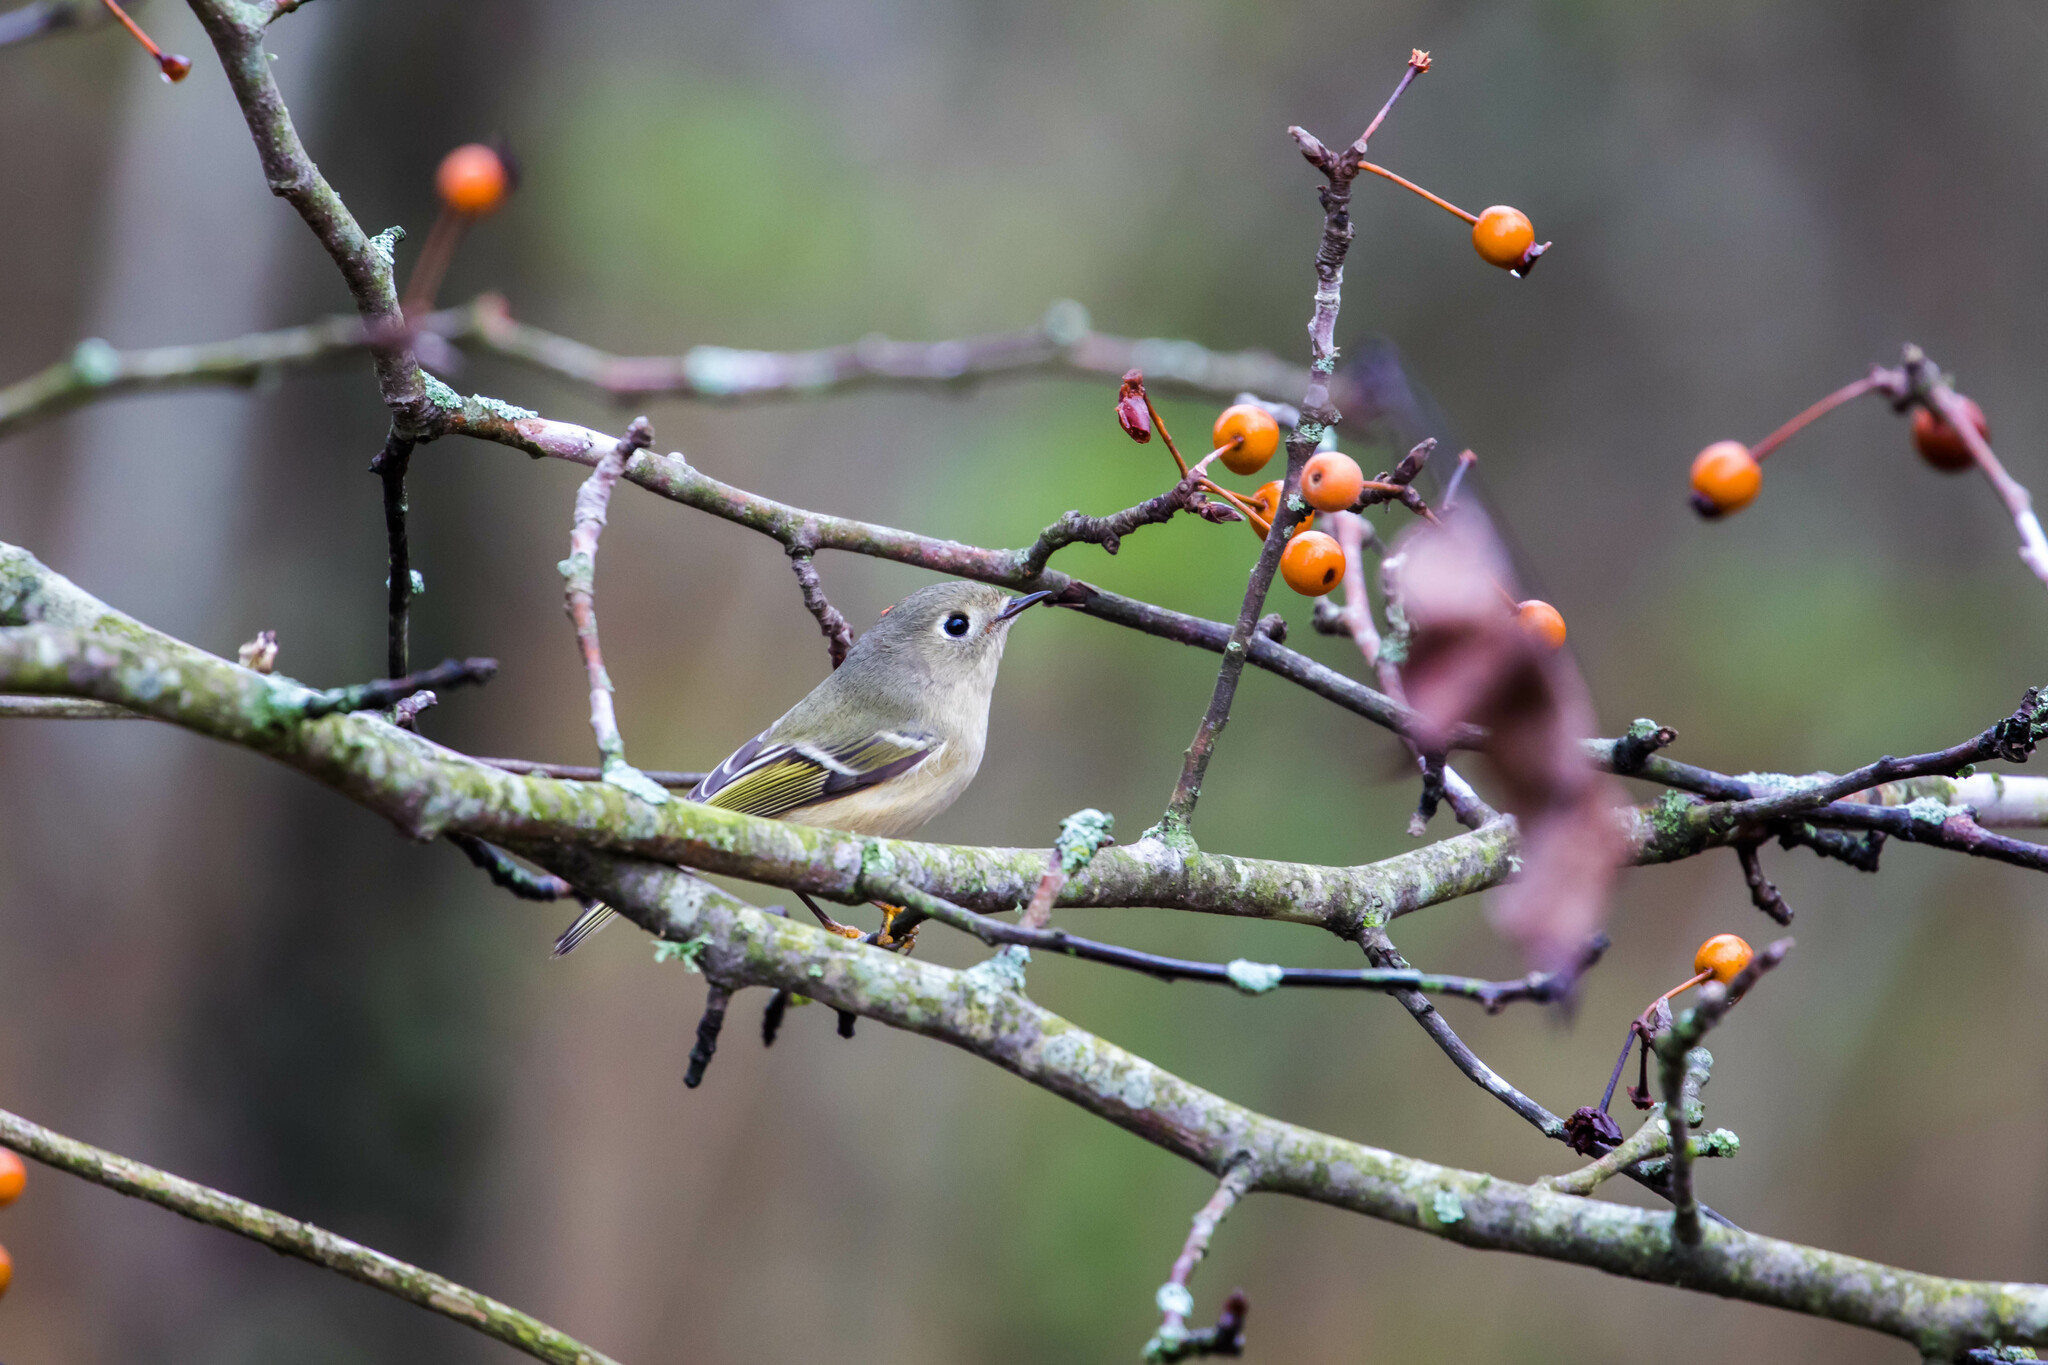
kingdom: Animalia
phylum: Chordata
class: Aves
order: Passeriformes
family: Regulidae
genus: Regulus
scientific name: Regulus calendula
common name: Ruby-crowned kinglet
